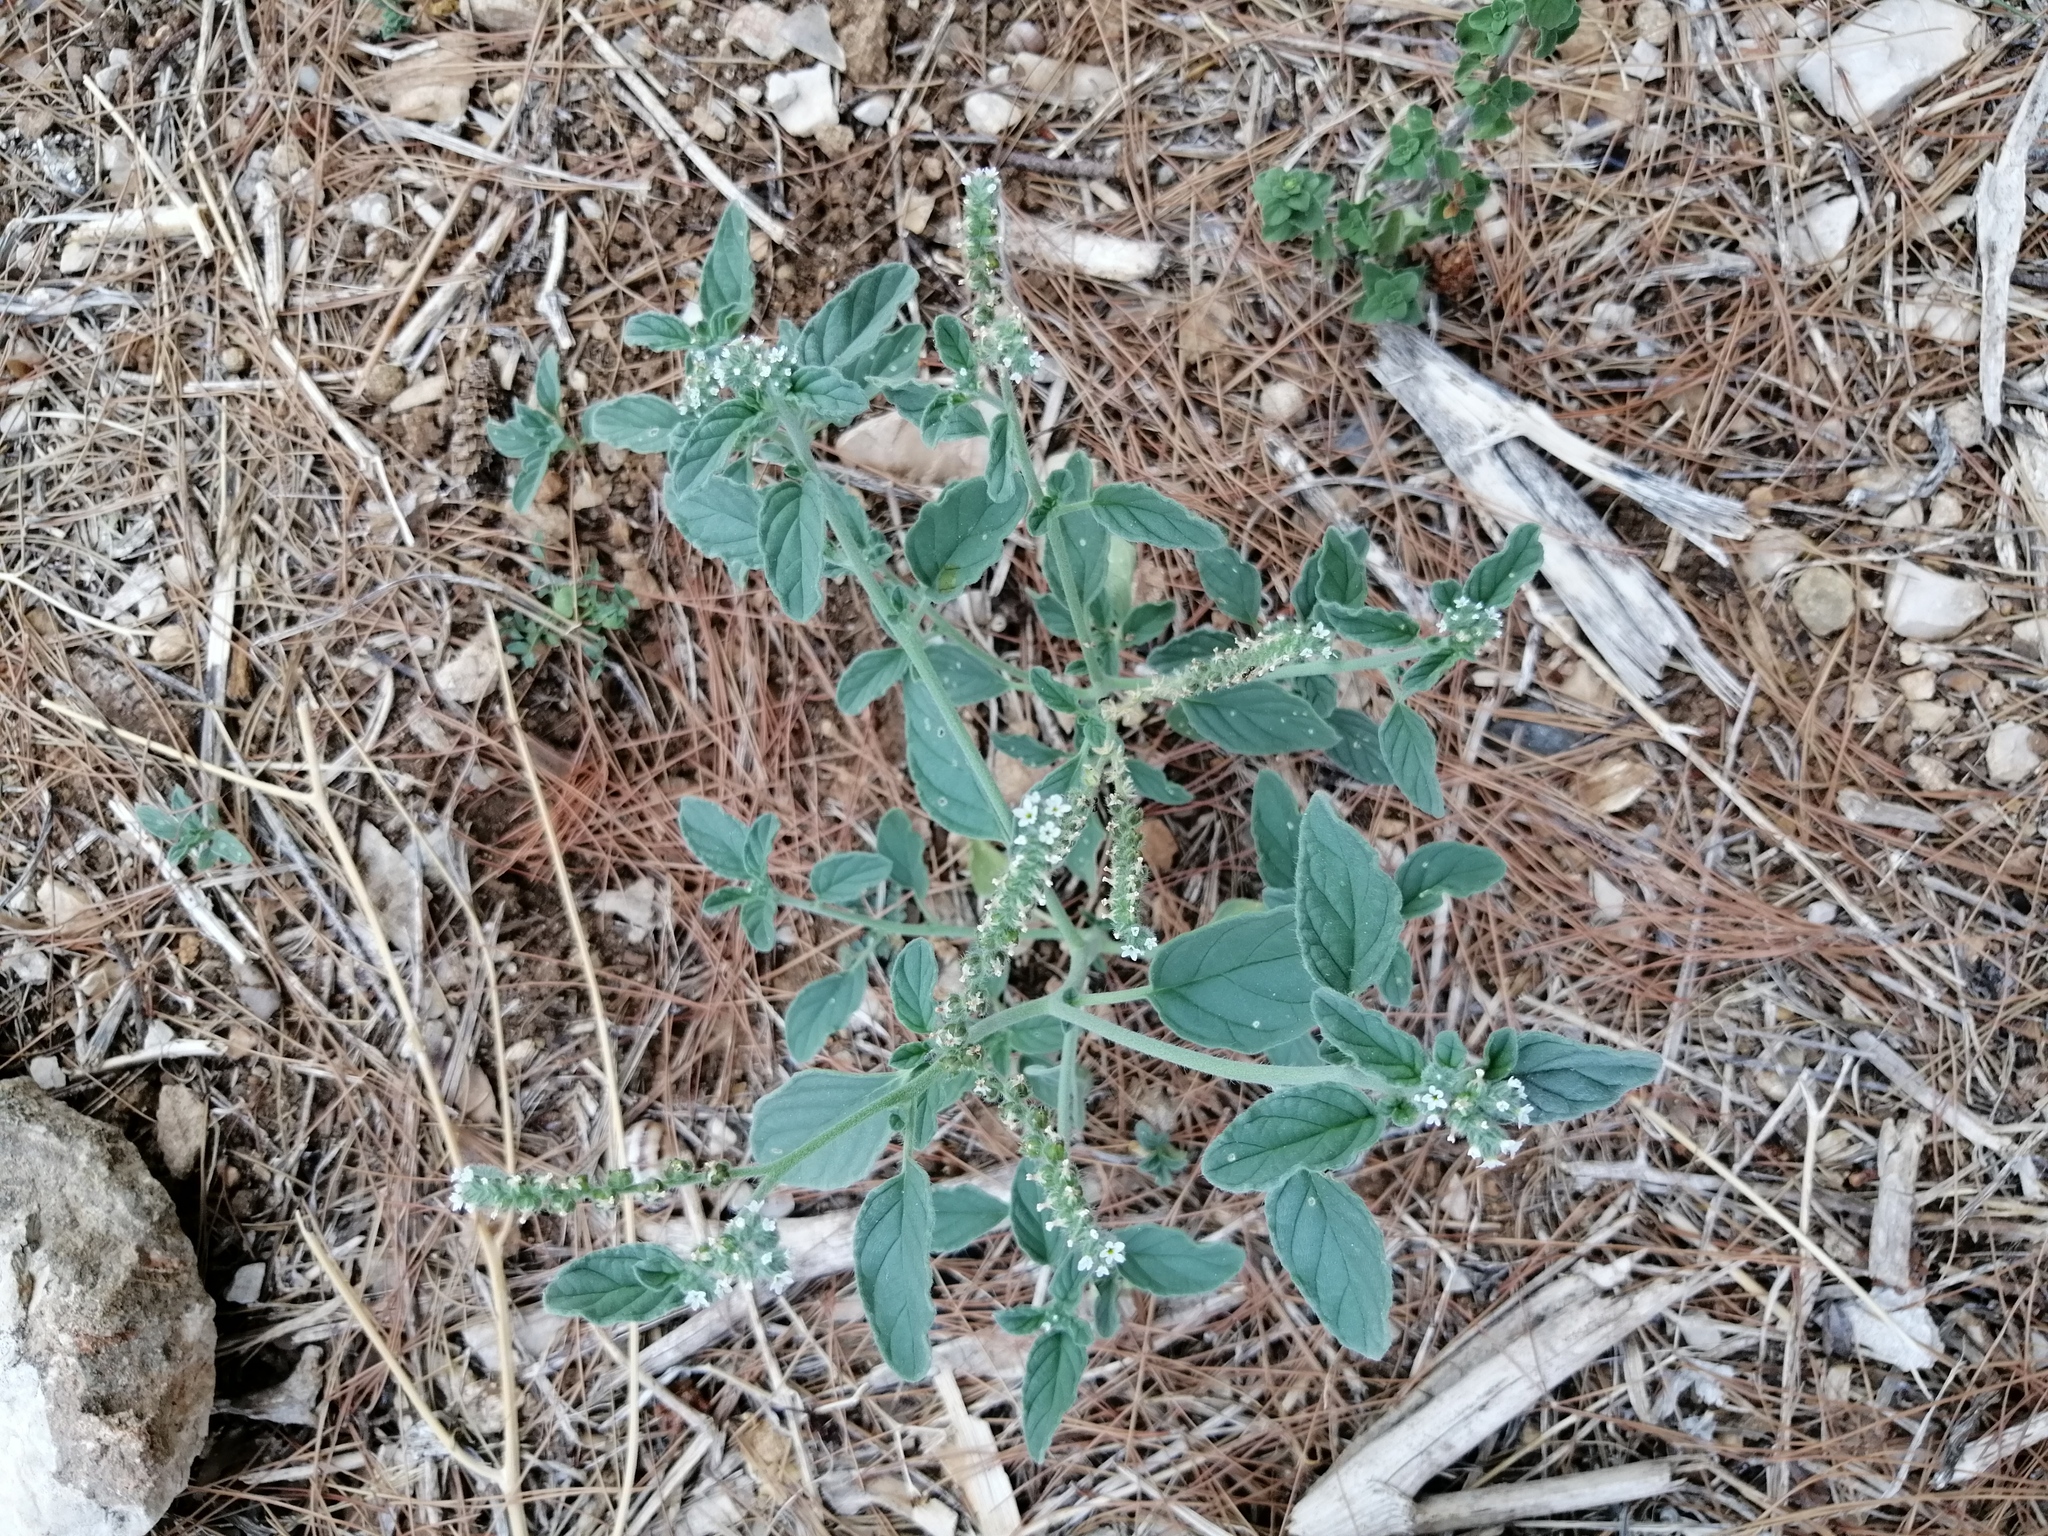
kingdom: Plantae
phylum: Tracheophyta
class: Magnoliopsida
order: Boraginales
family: Heliotropiaceae
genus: Heliotropium
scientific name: Heliotropium europaeum
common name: European heliotrope
